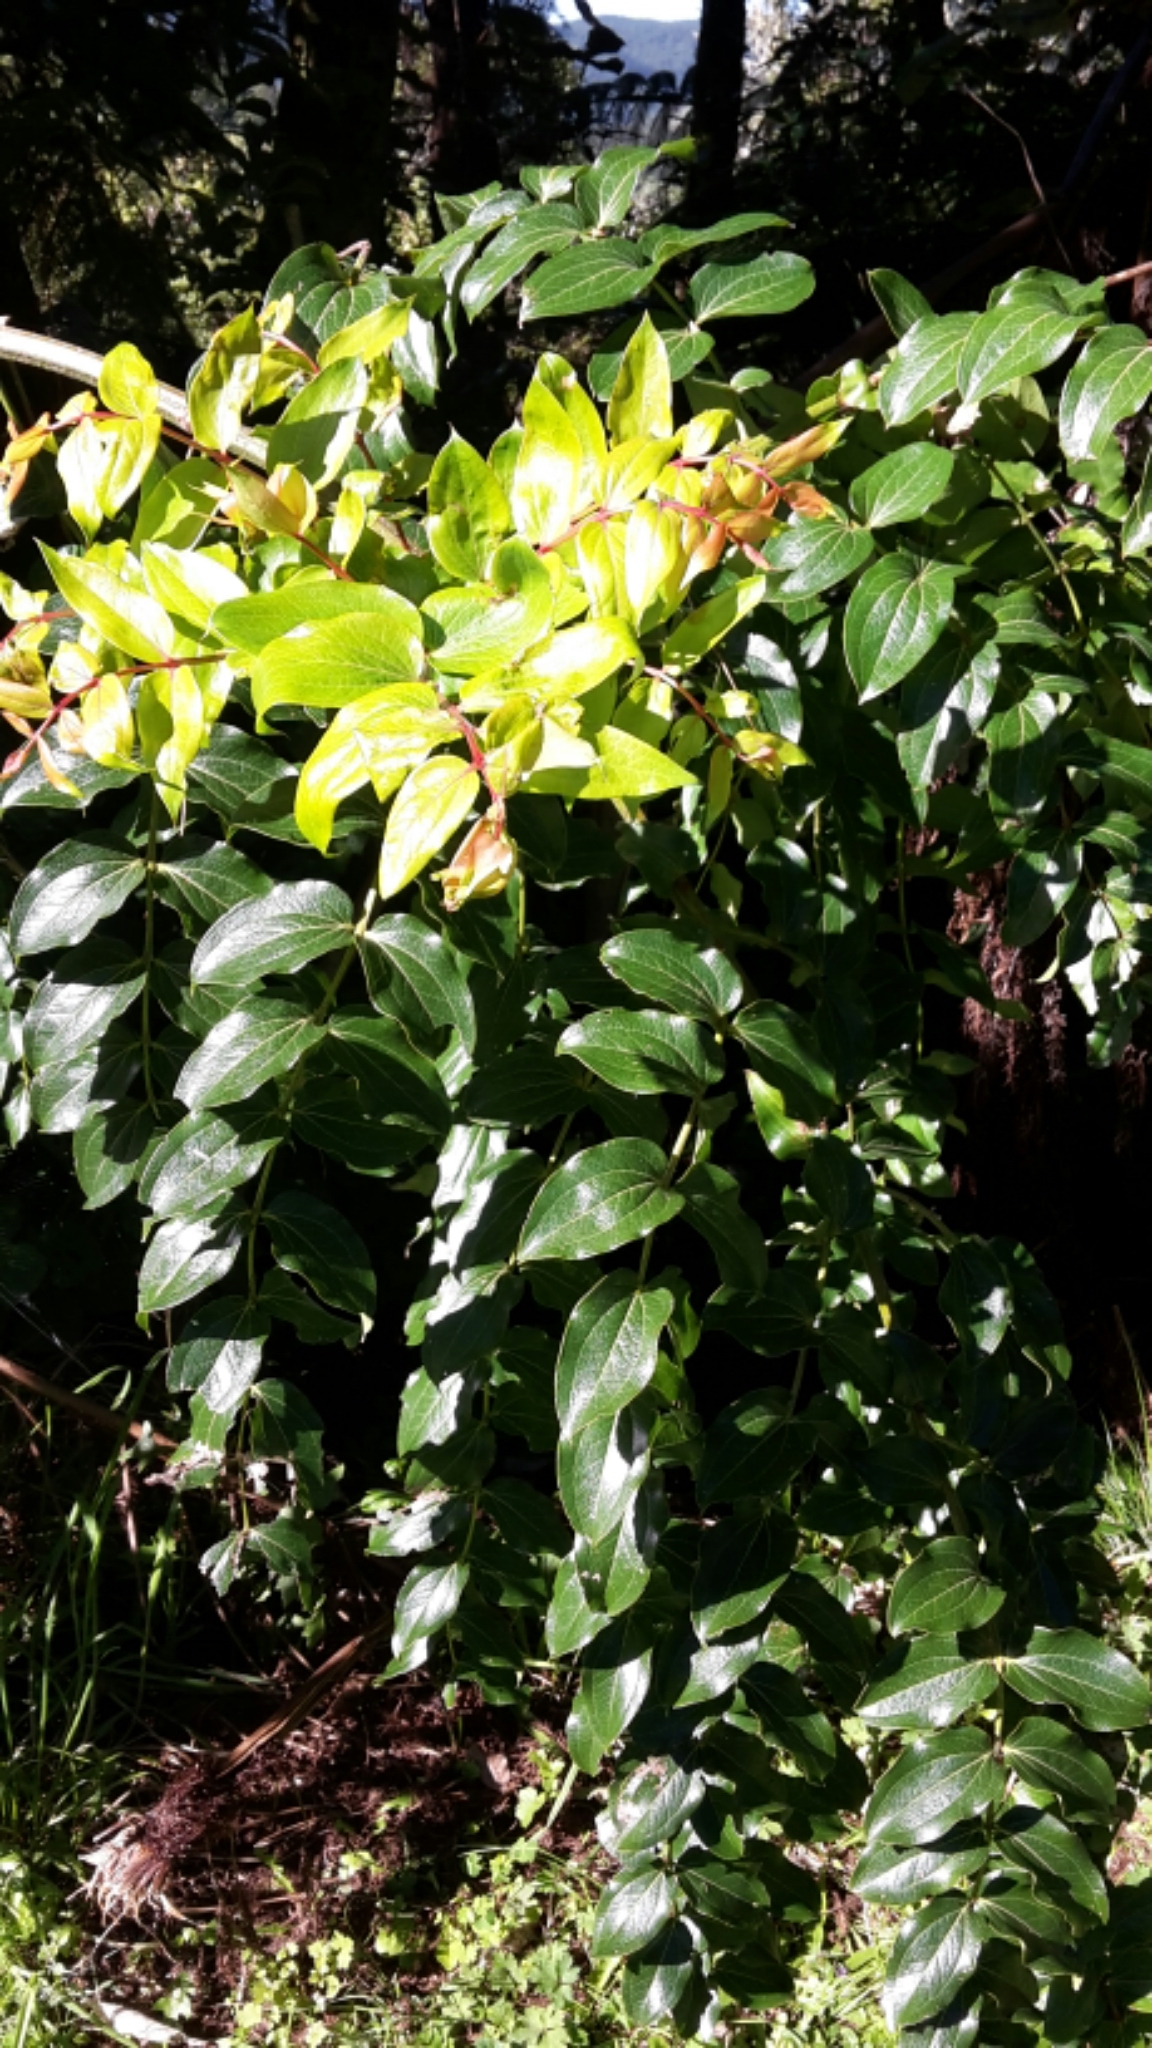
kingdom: Plantae
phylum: Tracheophyta
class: Magnoliopsida
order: Cucurbitales
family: Coriariaceae
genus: Coriaria
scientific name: Coriaria arborea
